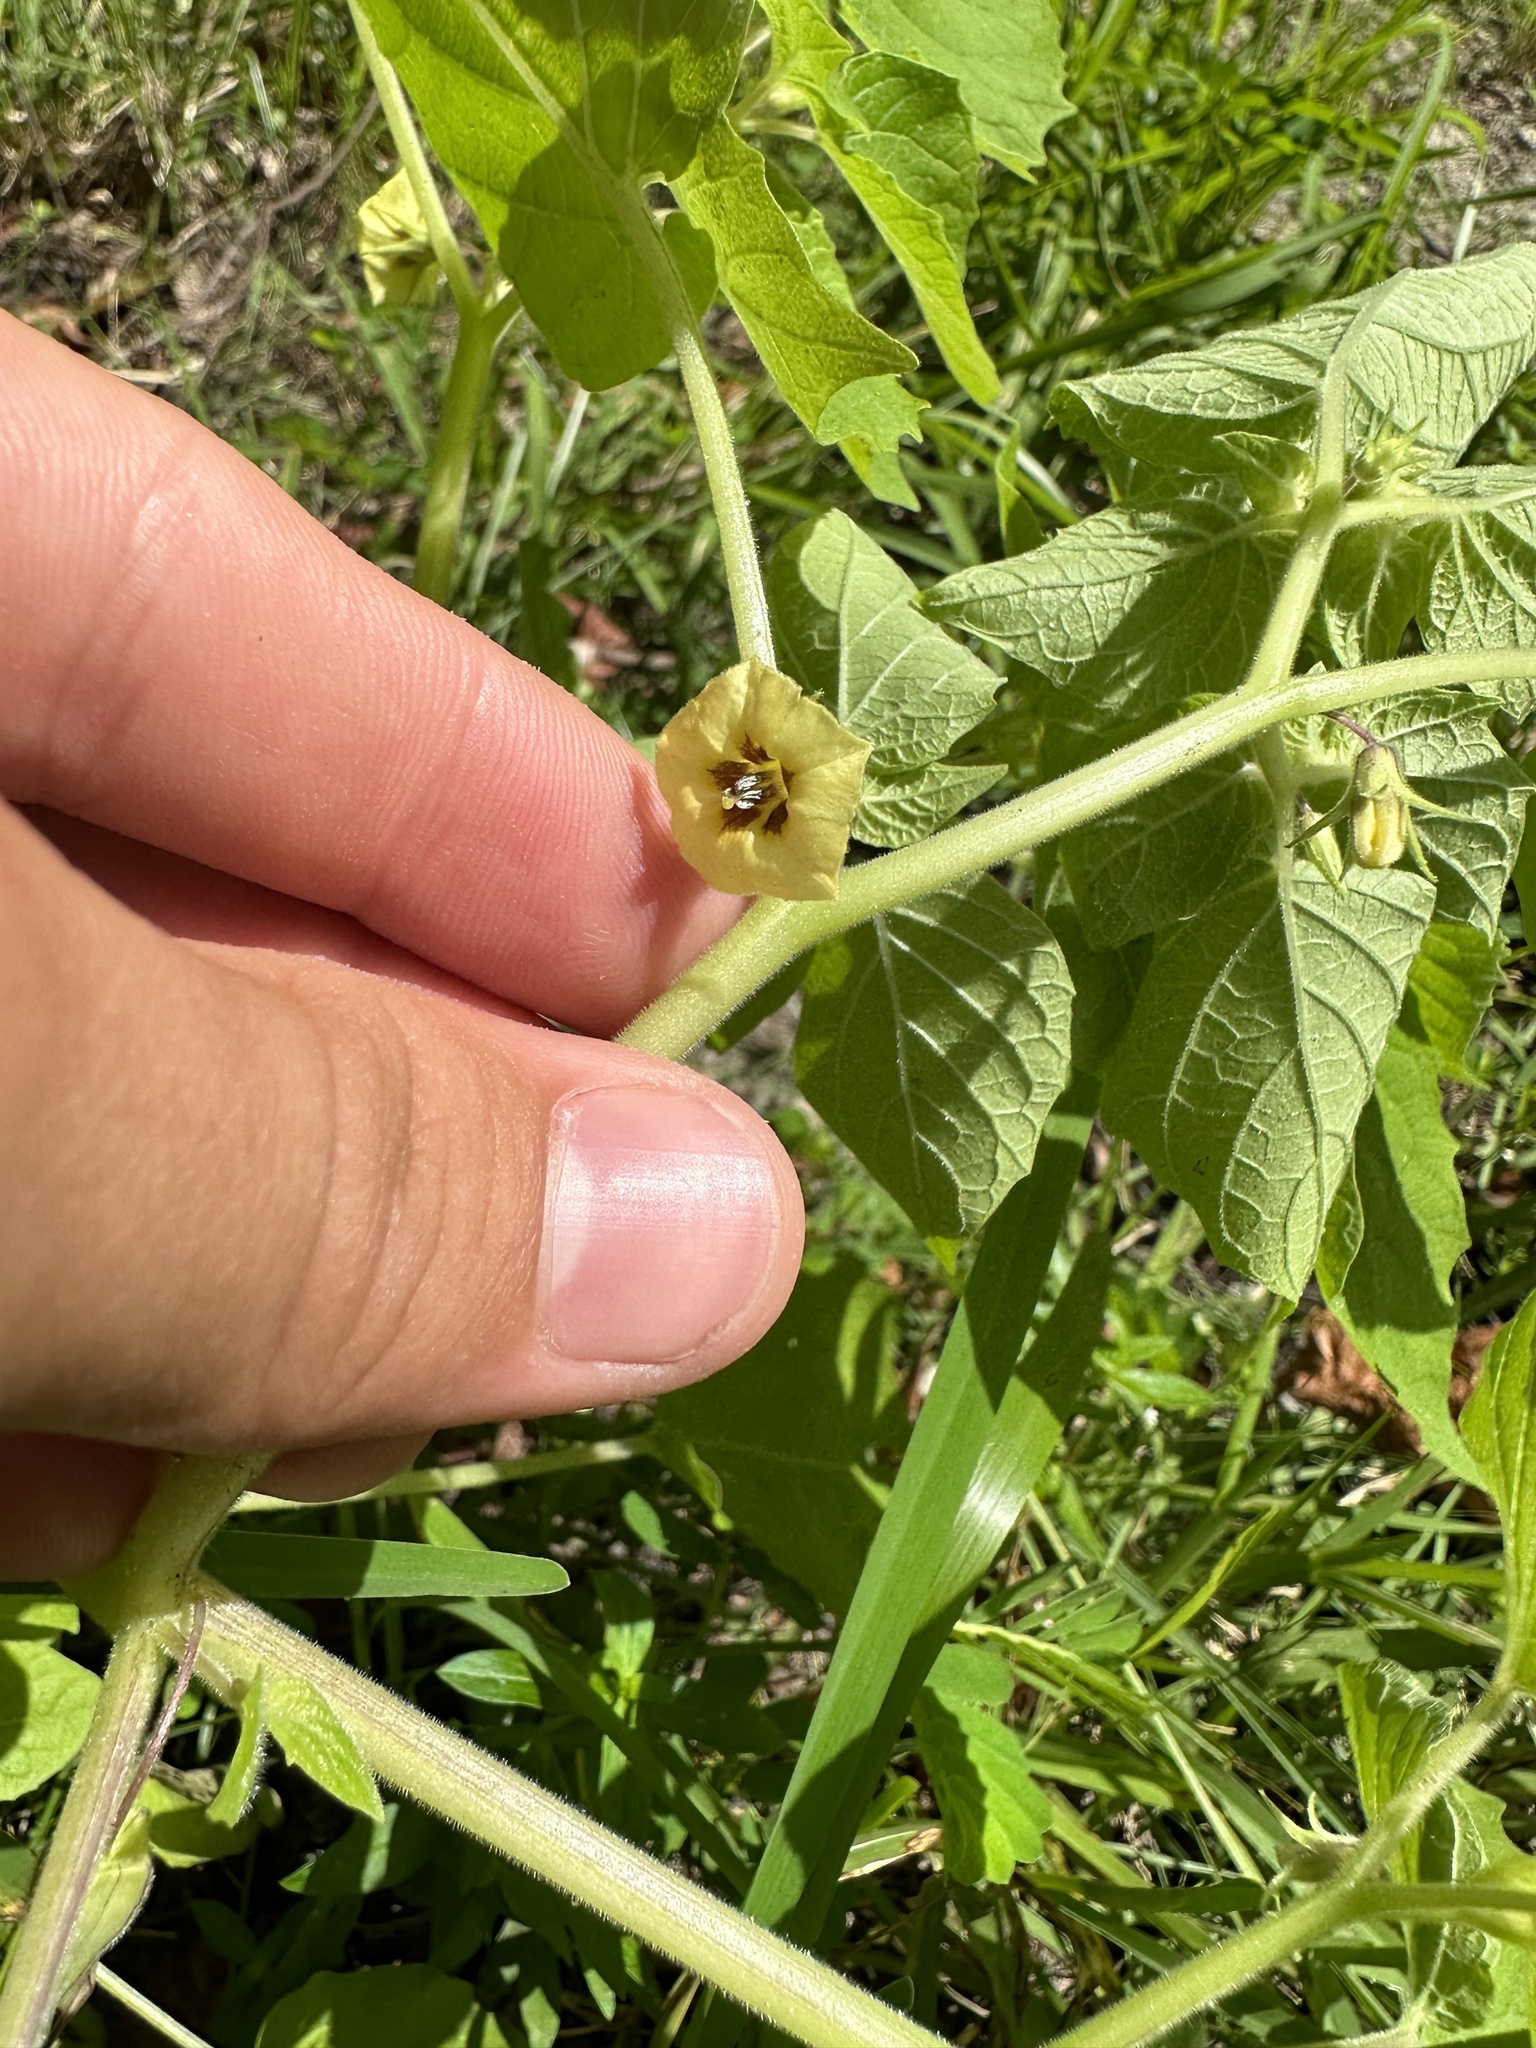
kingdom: Plantae
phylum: Tracheophyta
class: Magnoliopsida
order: Solanales
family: Solanaceae
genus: Physalis
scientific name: Physalis pubescens
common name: Downy ground-cherry
